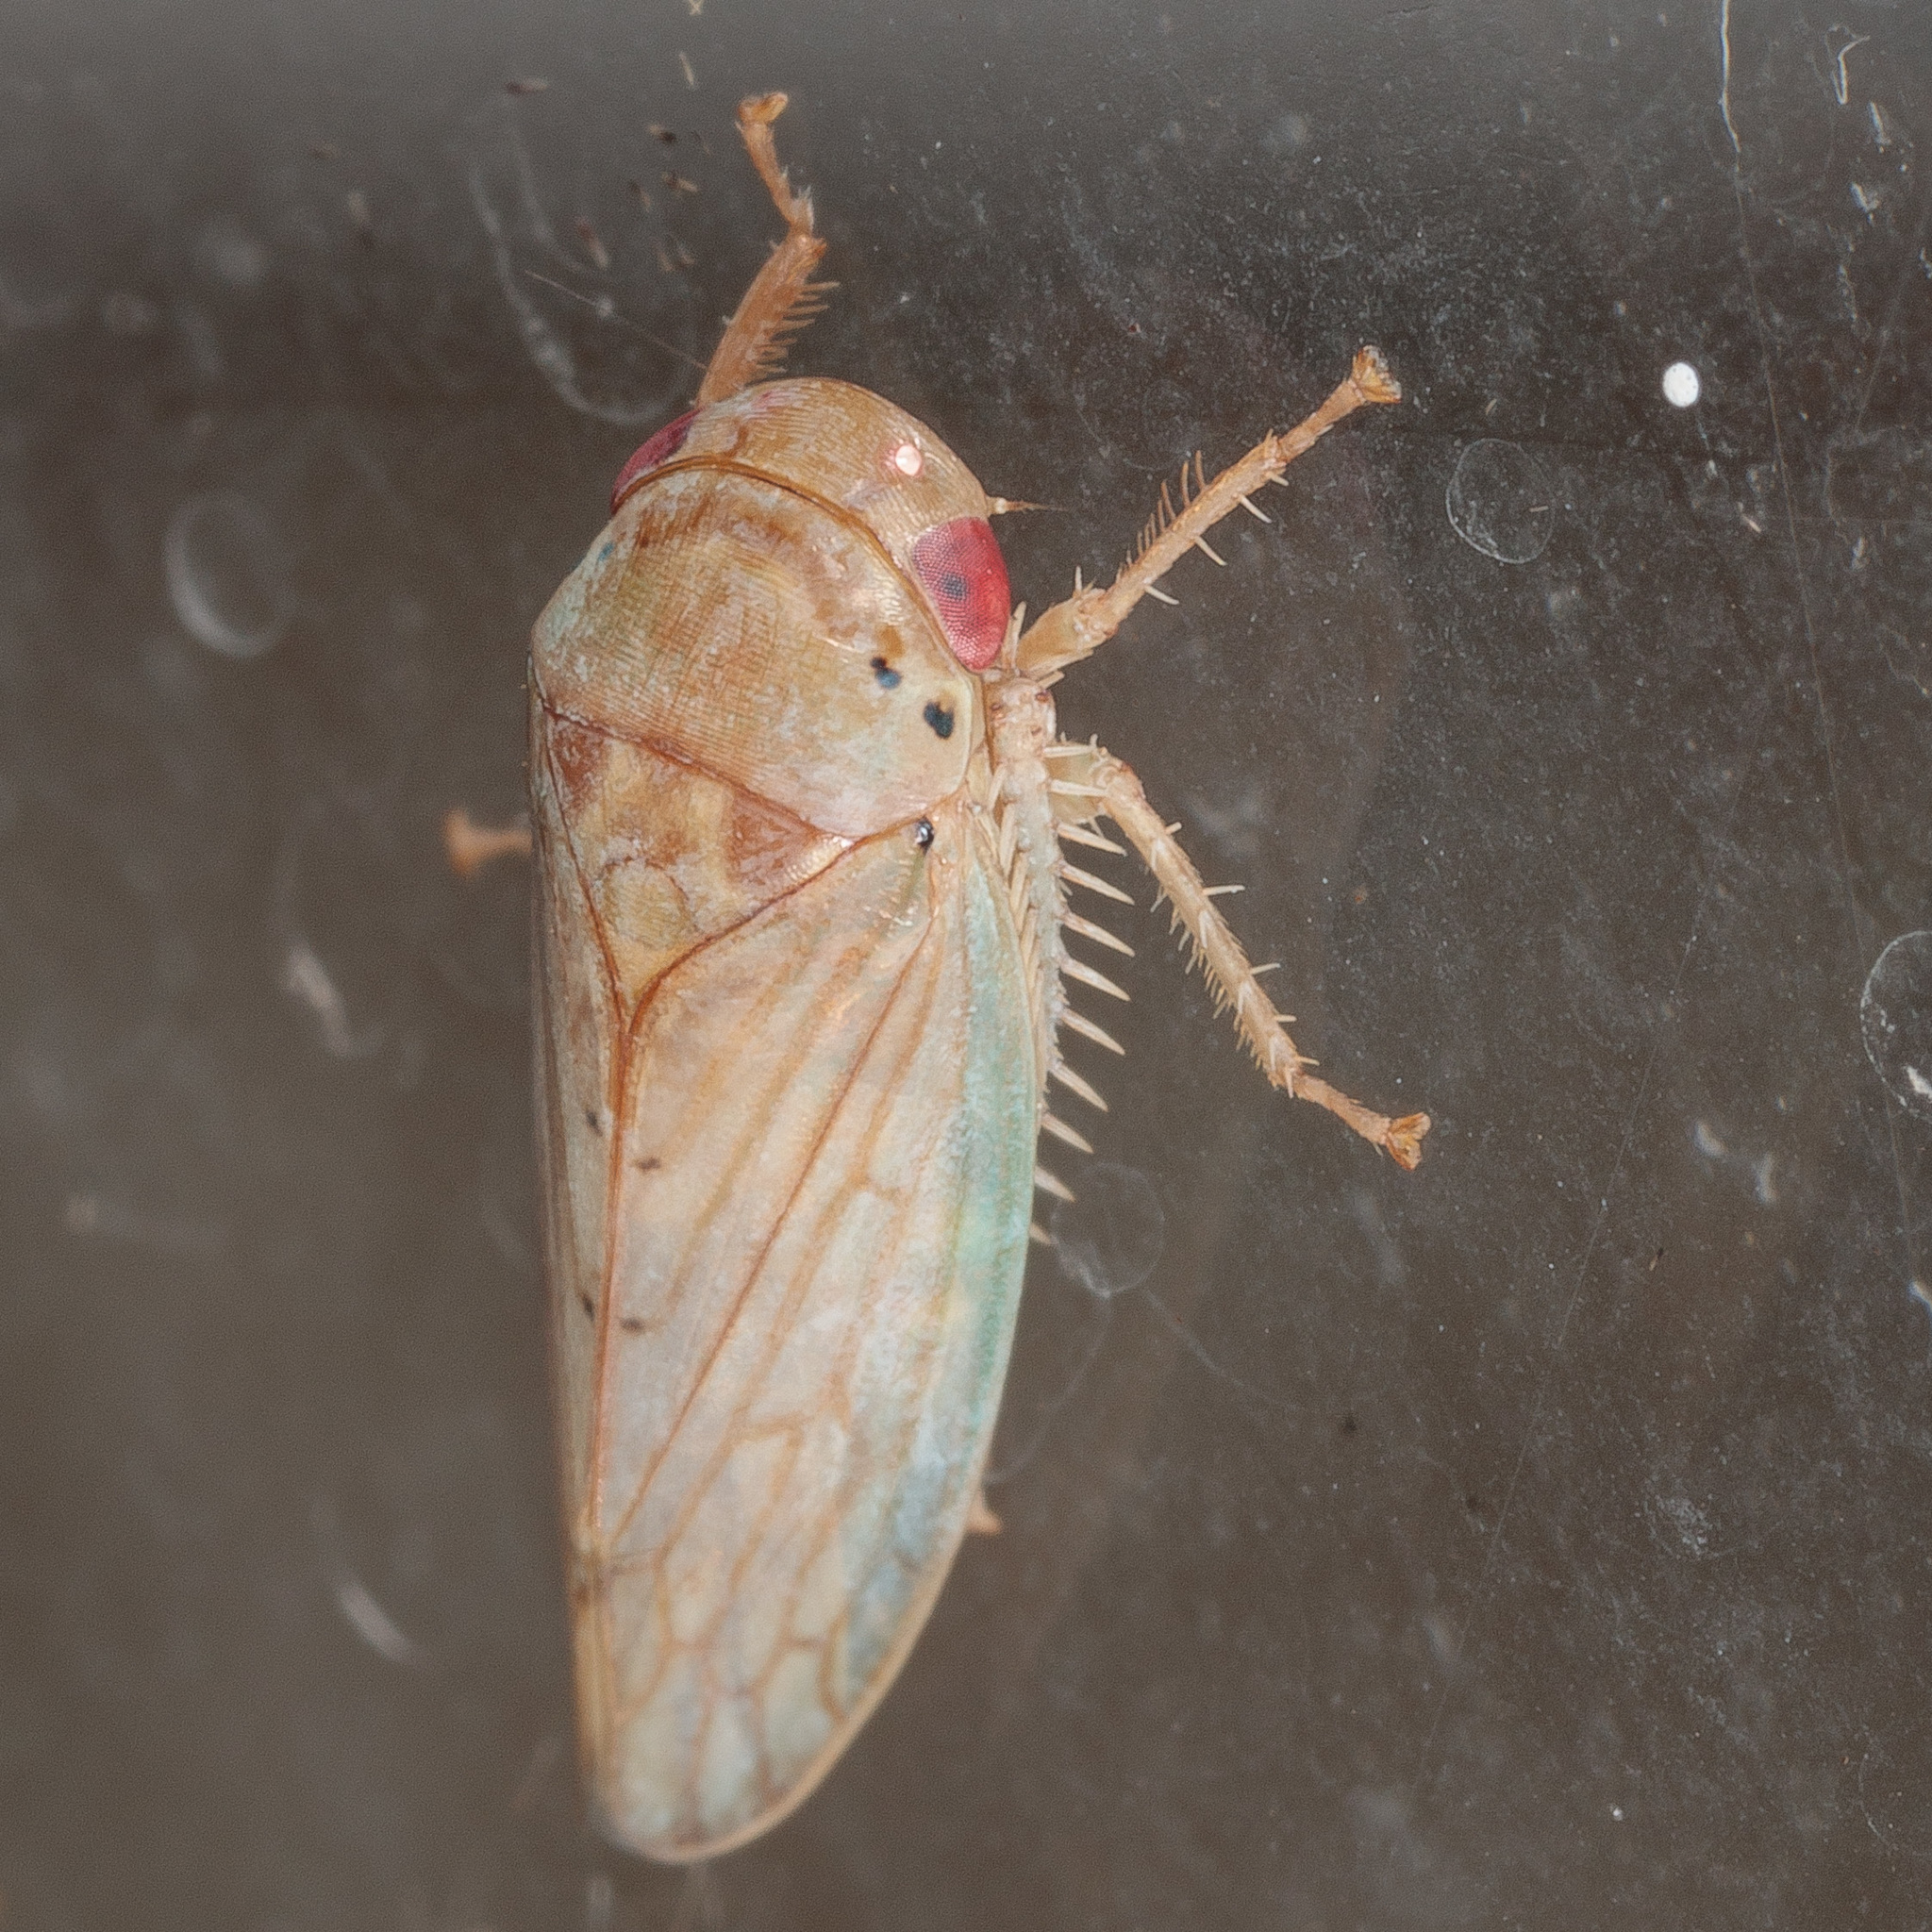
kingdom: Animalia
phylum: Arthropoda
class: Insecta
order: Hemiptera
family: Cicadellidae
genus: Polana
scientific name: Polana quadrinotata
